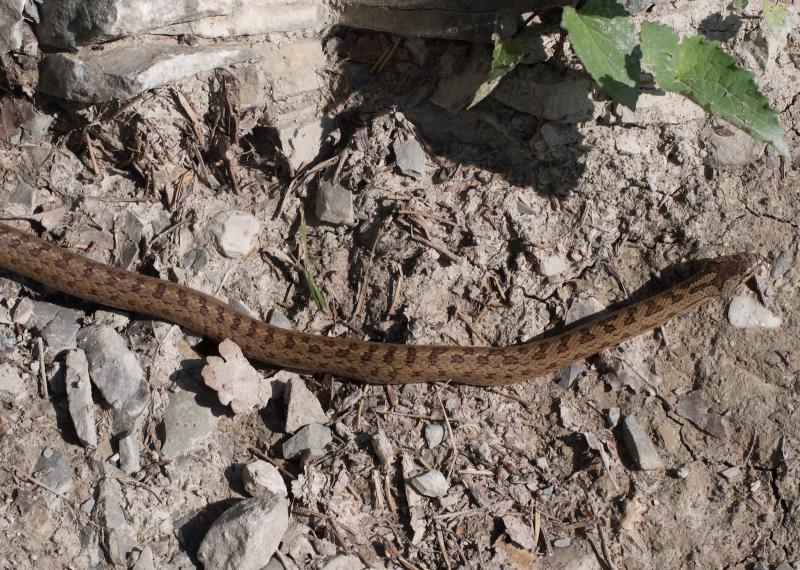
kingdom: Animalia
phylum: Chordata
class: Squamata
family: Colubridae
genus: Coronella
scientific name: Coronella austriaca
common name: Smooth snake
